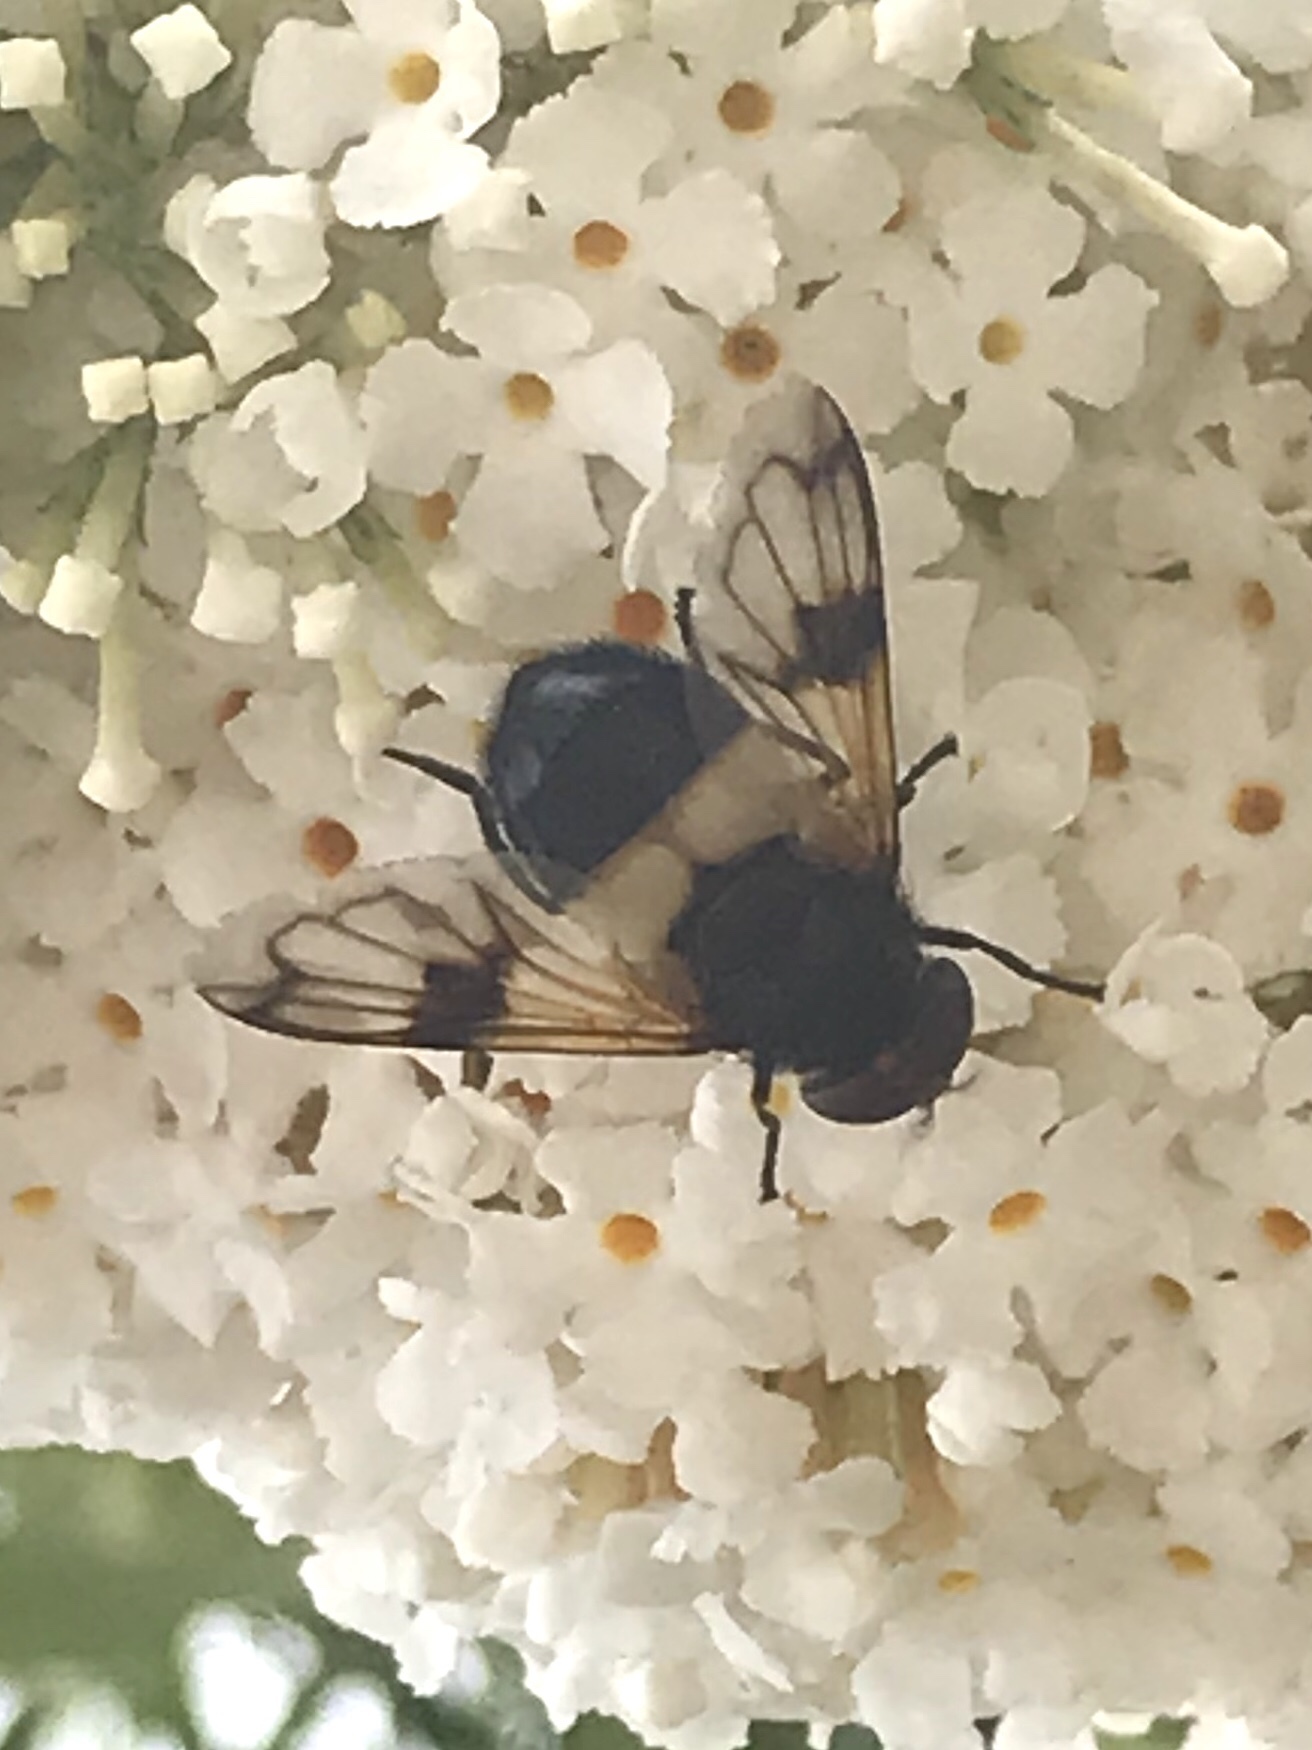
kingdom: Animalia
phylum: Arthropoda
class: Insecta
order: Diptera
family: Syrphidae
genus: Volucella
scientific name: Volucella pellucens
